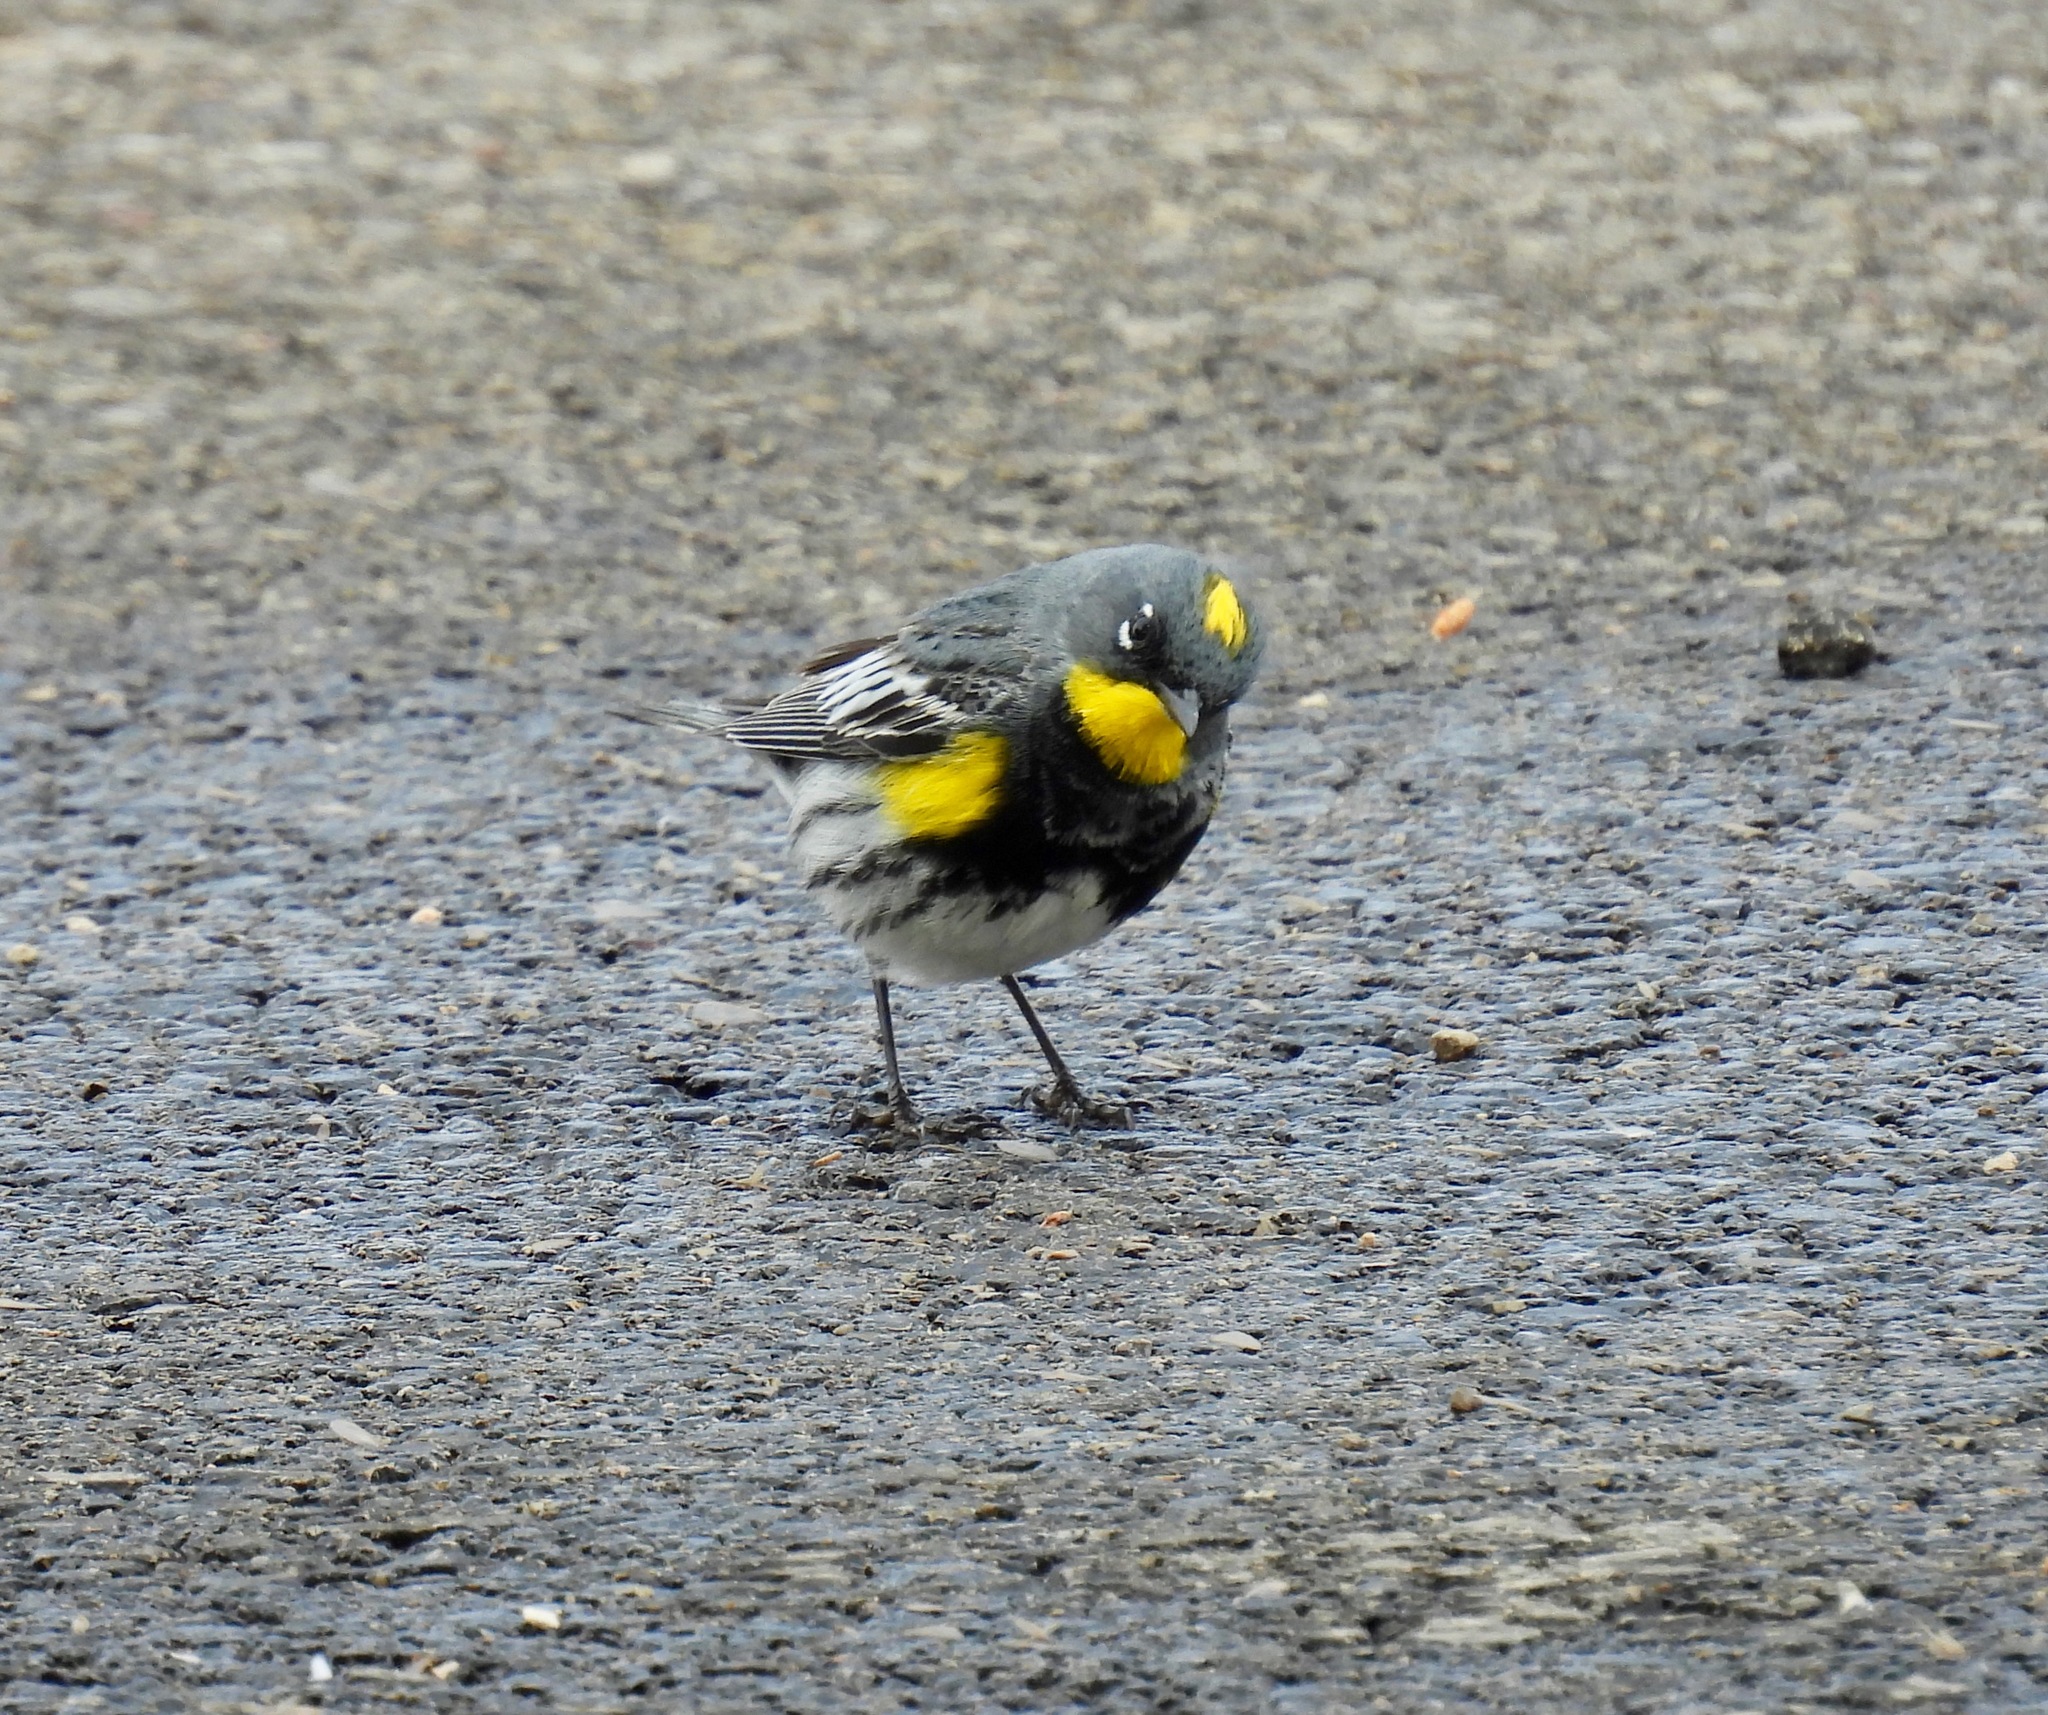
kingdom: Animalia
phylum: Chordata
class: Aves
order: Passeriformes
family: Parulidae
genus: Setophaga
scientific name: Setophaga auduboni
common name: Audubon's warbler
